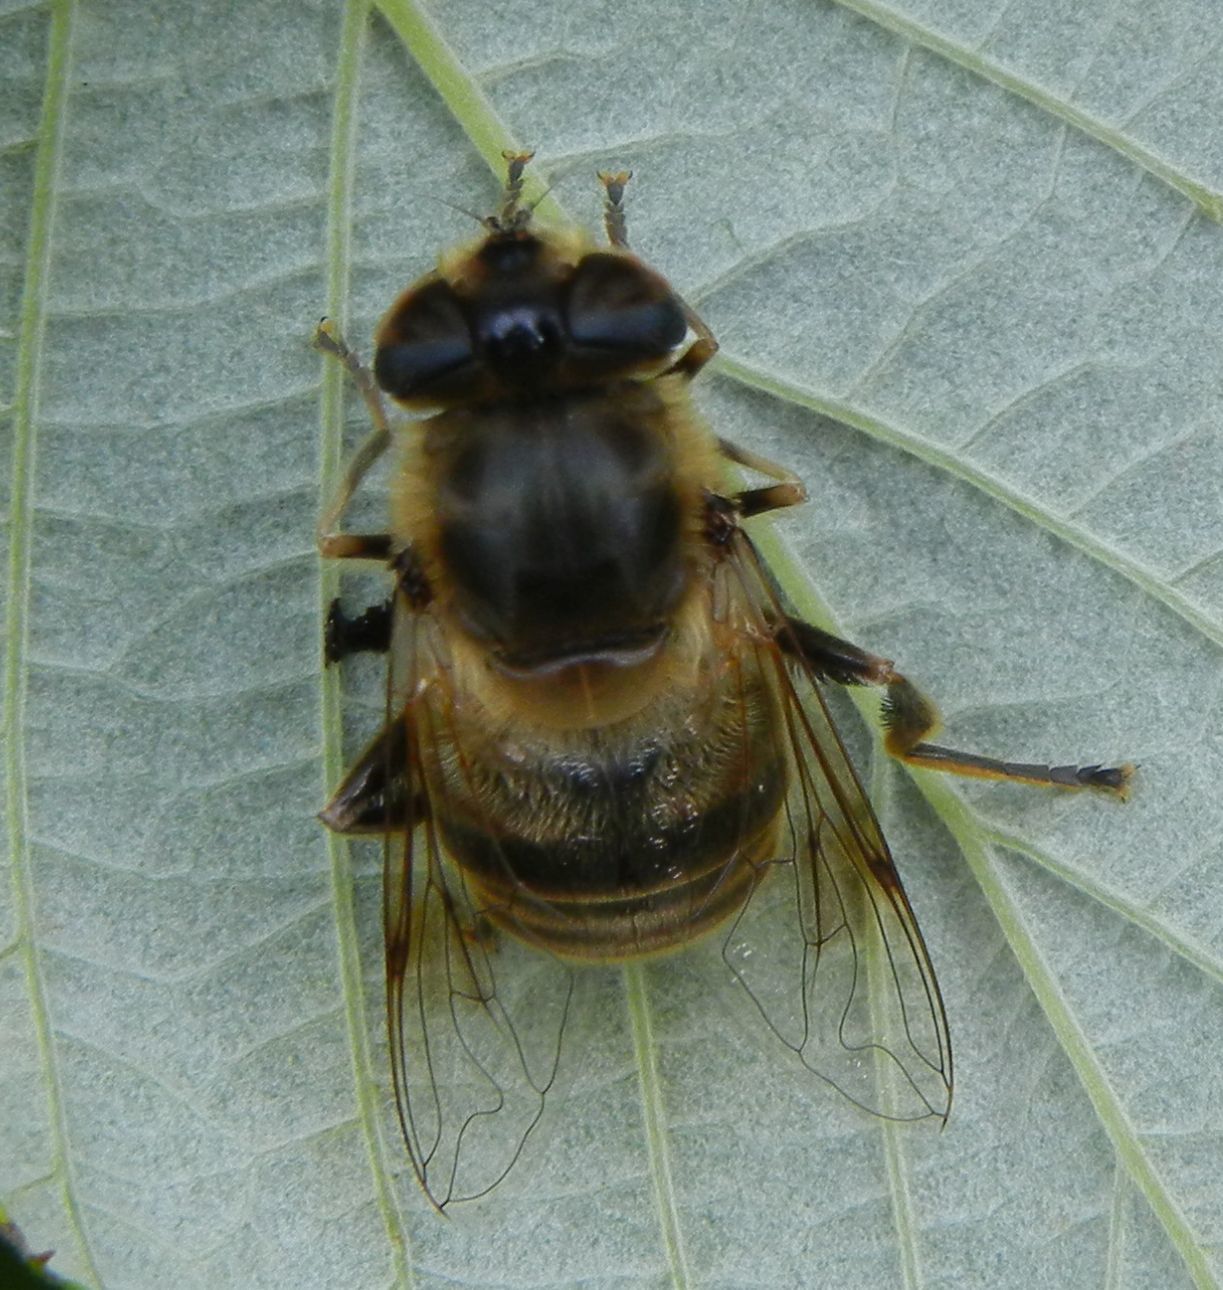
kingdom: Animalia
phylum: Arthropoda
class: Insecta
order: Diptera
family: Syrphidae
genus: Eristalis
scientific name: Eristalis tenax
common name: Drone fly
